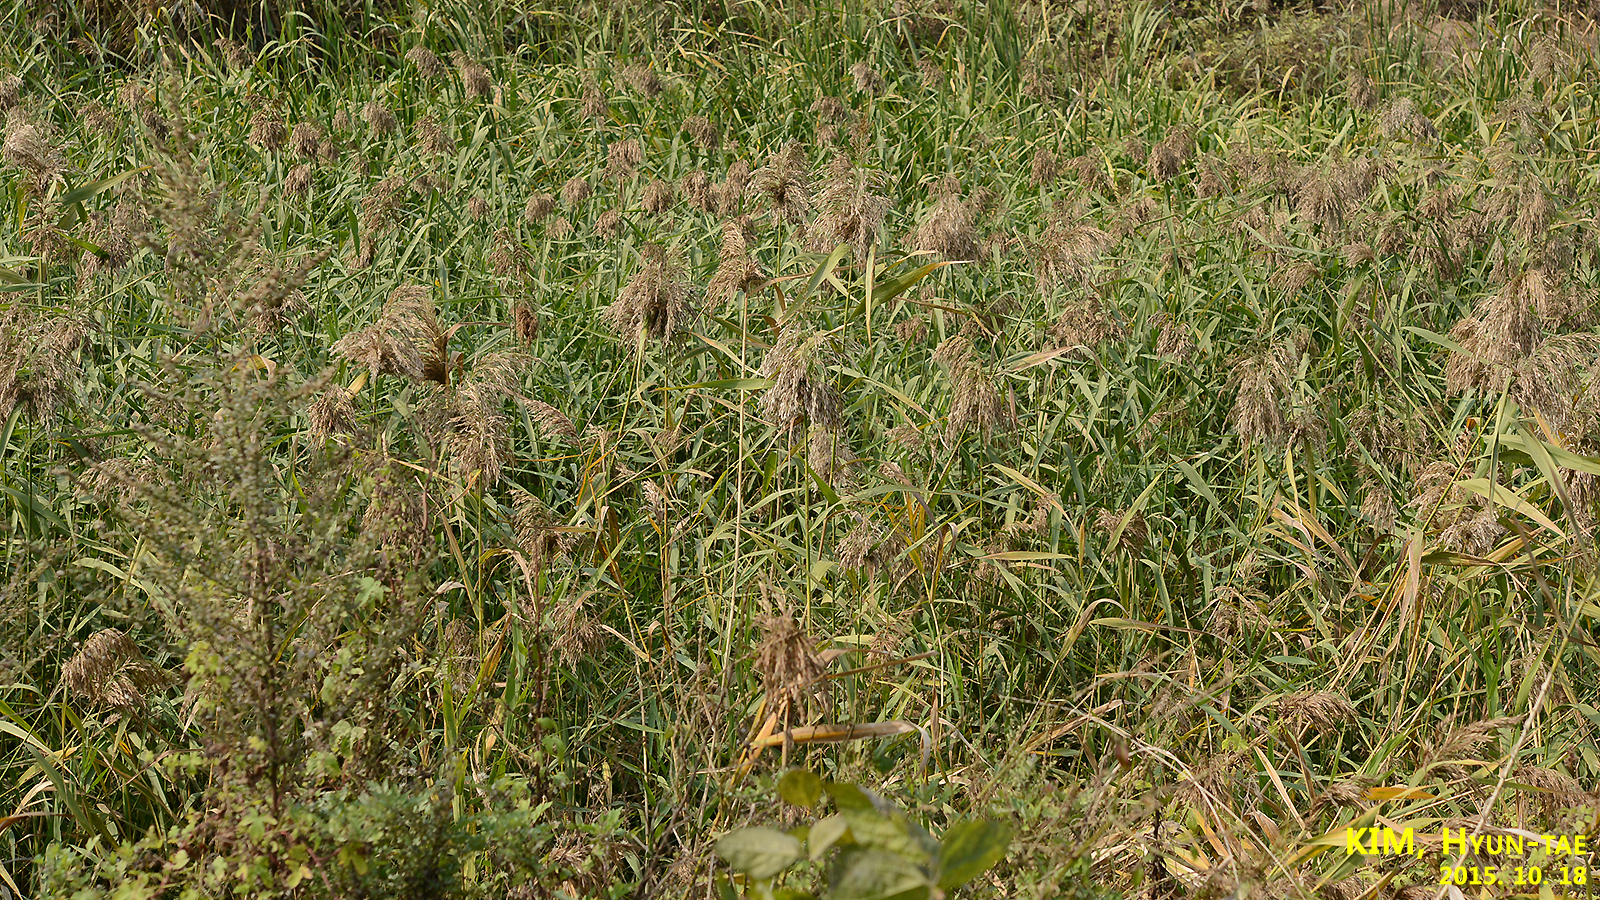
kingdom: Plantae
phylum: Tracheophyta
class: Liliopsida
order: Poales
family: Poaceae
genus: Phragmites
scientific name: Phragmites australis
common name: Common reed
